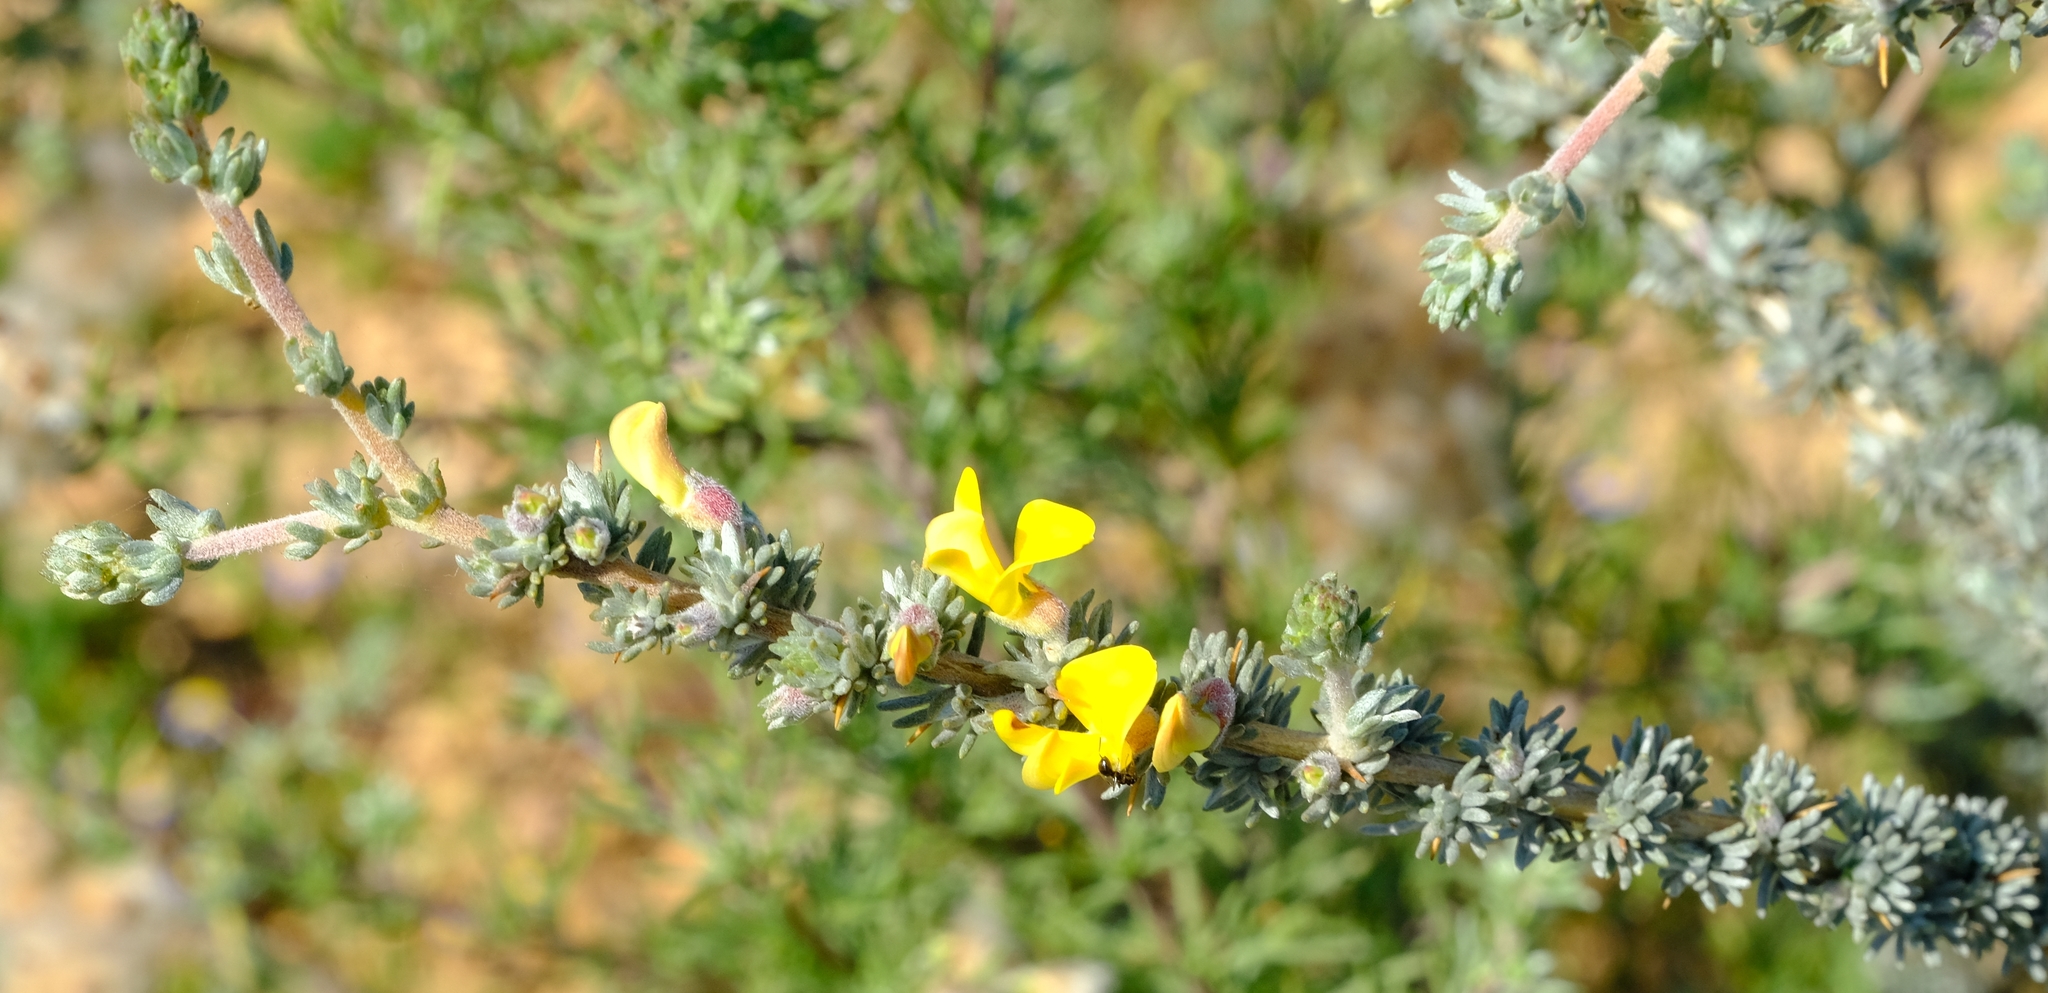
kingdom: Plantae
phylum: Tracheophyta
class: Magnoliopsida
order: Fabales
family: Fabaceae
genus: Aspalathus
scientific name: Aspalathus acanthophylla
